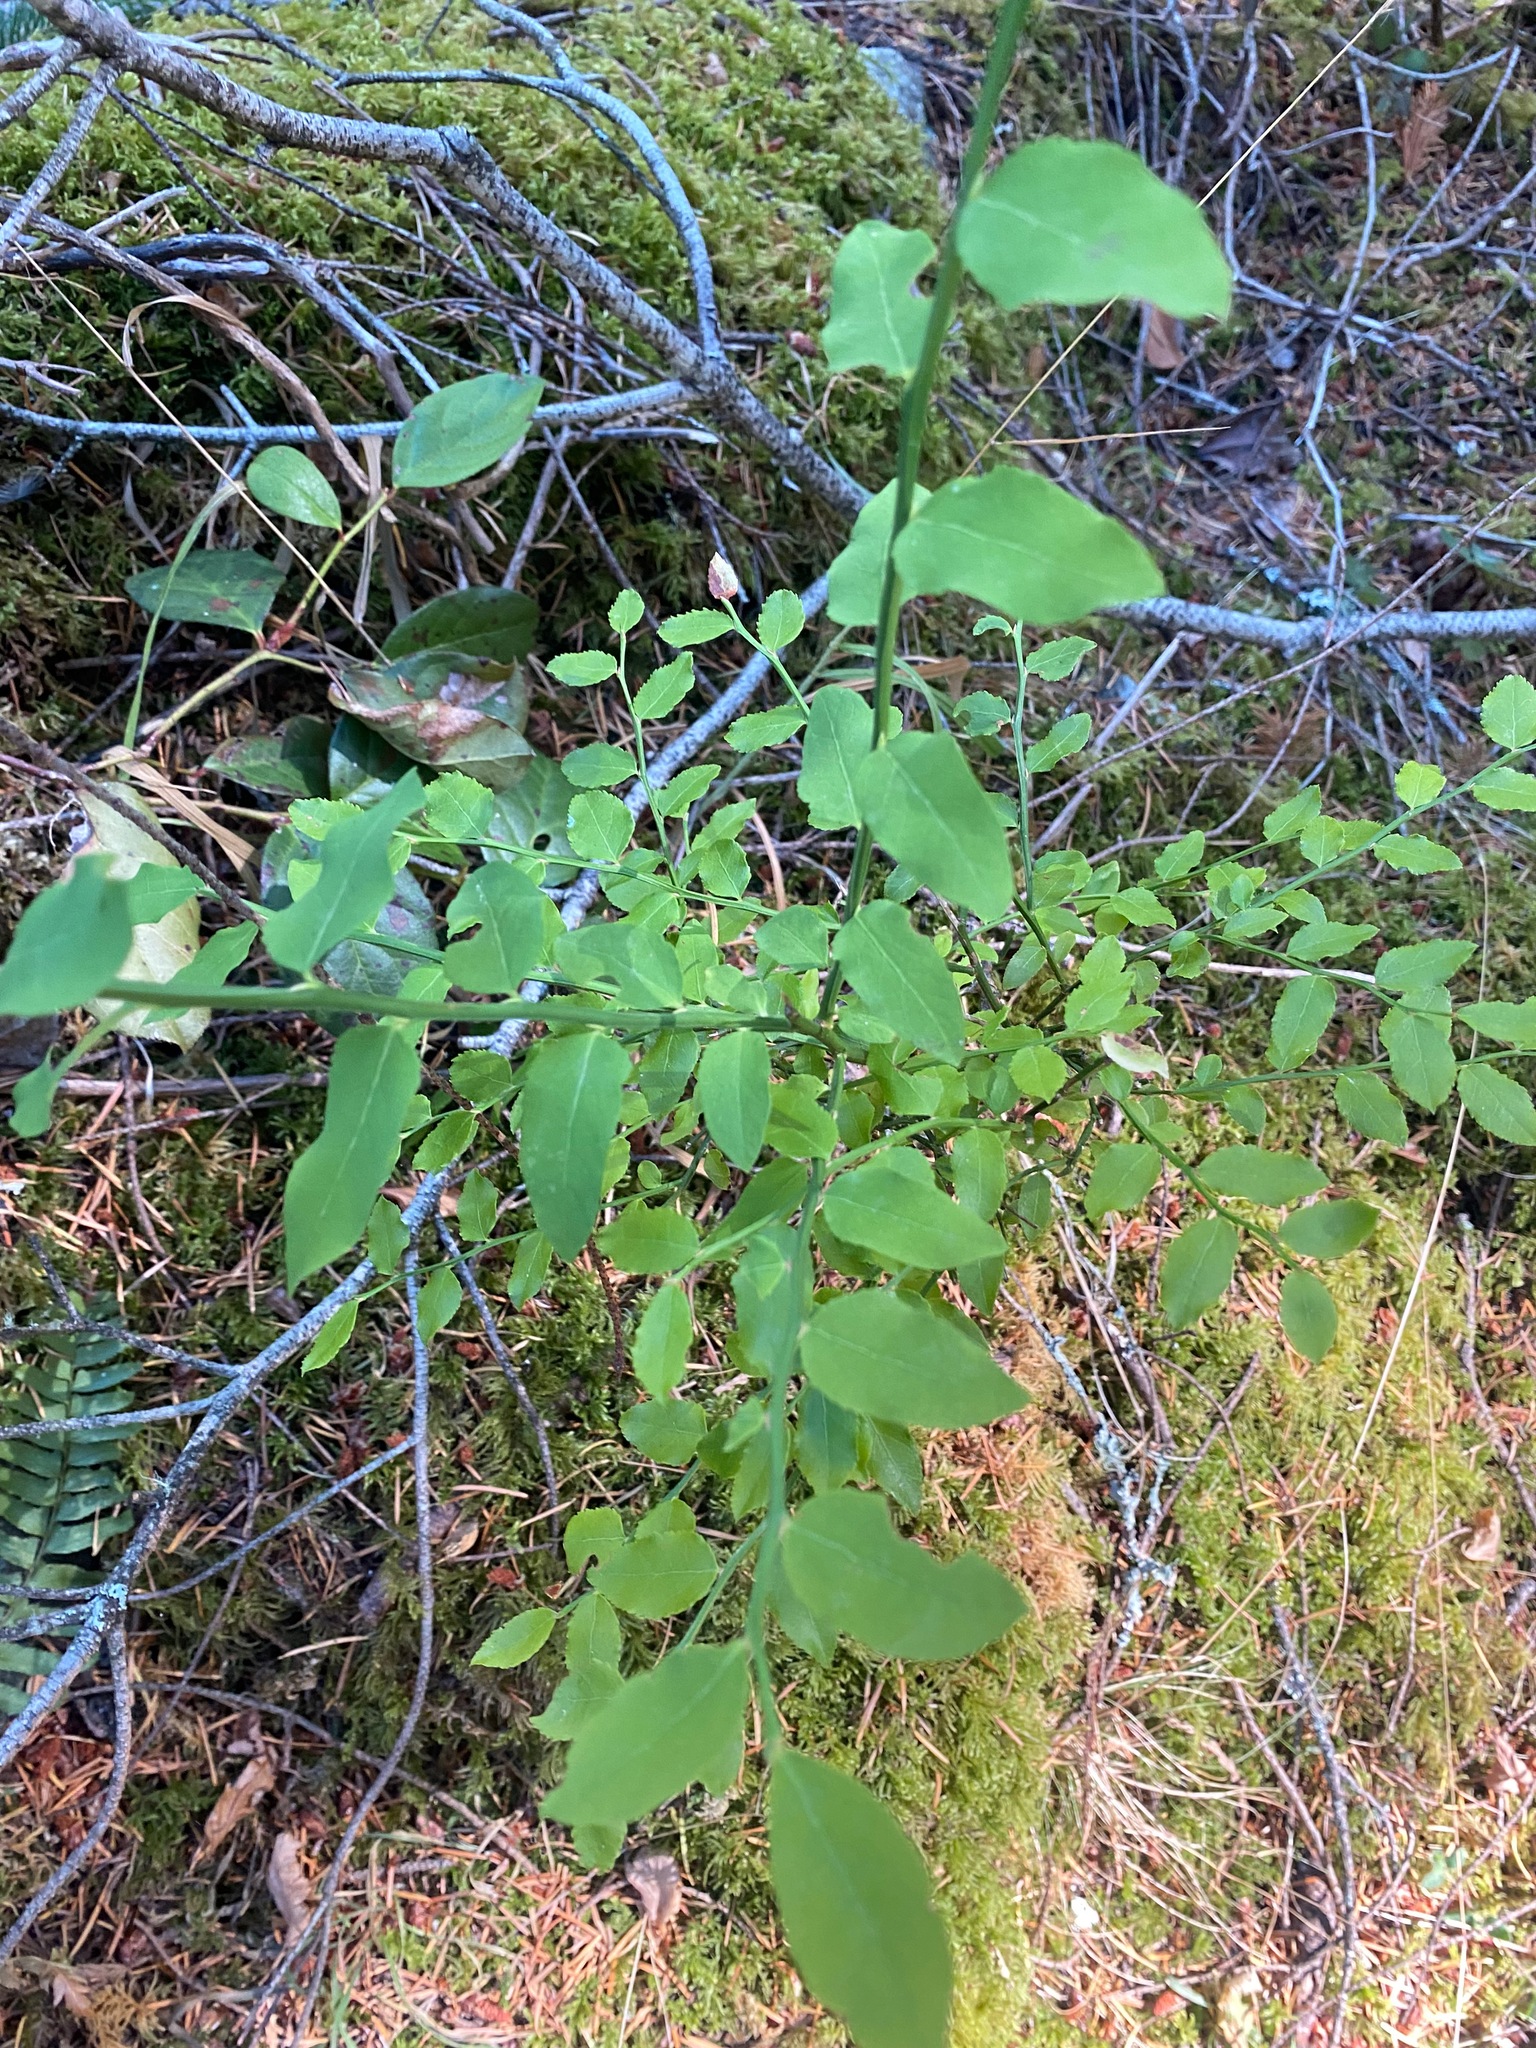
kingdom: Plantae
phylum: Tracheophyta
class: Magnoliopsida
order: Ericales
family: Ericaceae
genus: Vaccinium
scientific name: Vaccinium parvifolium
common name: Red-huckleberry
